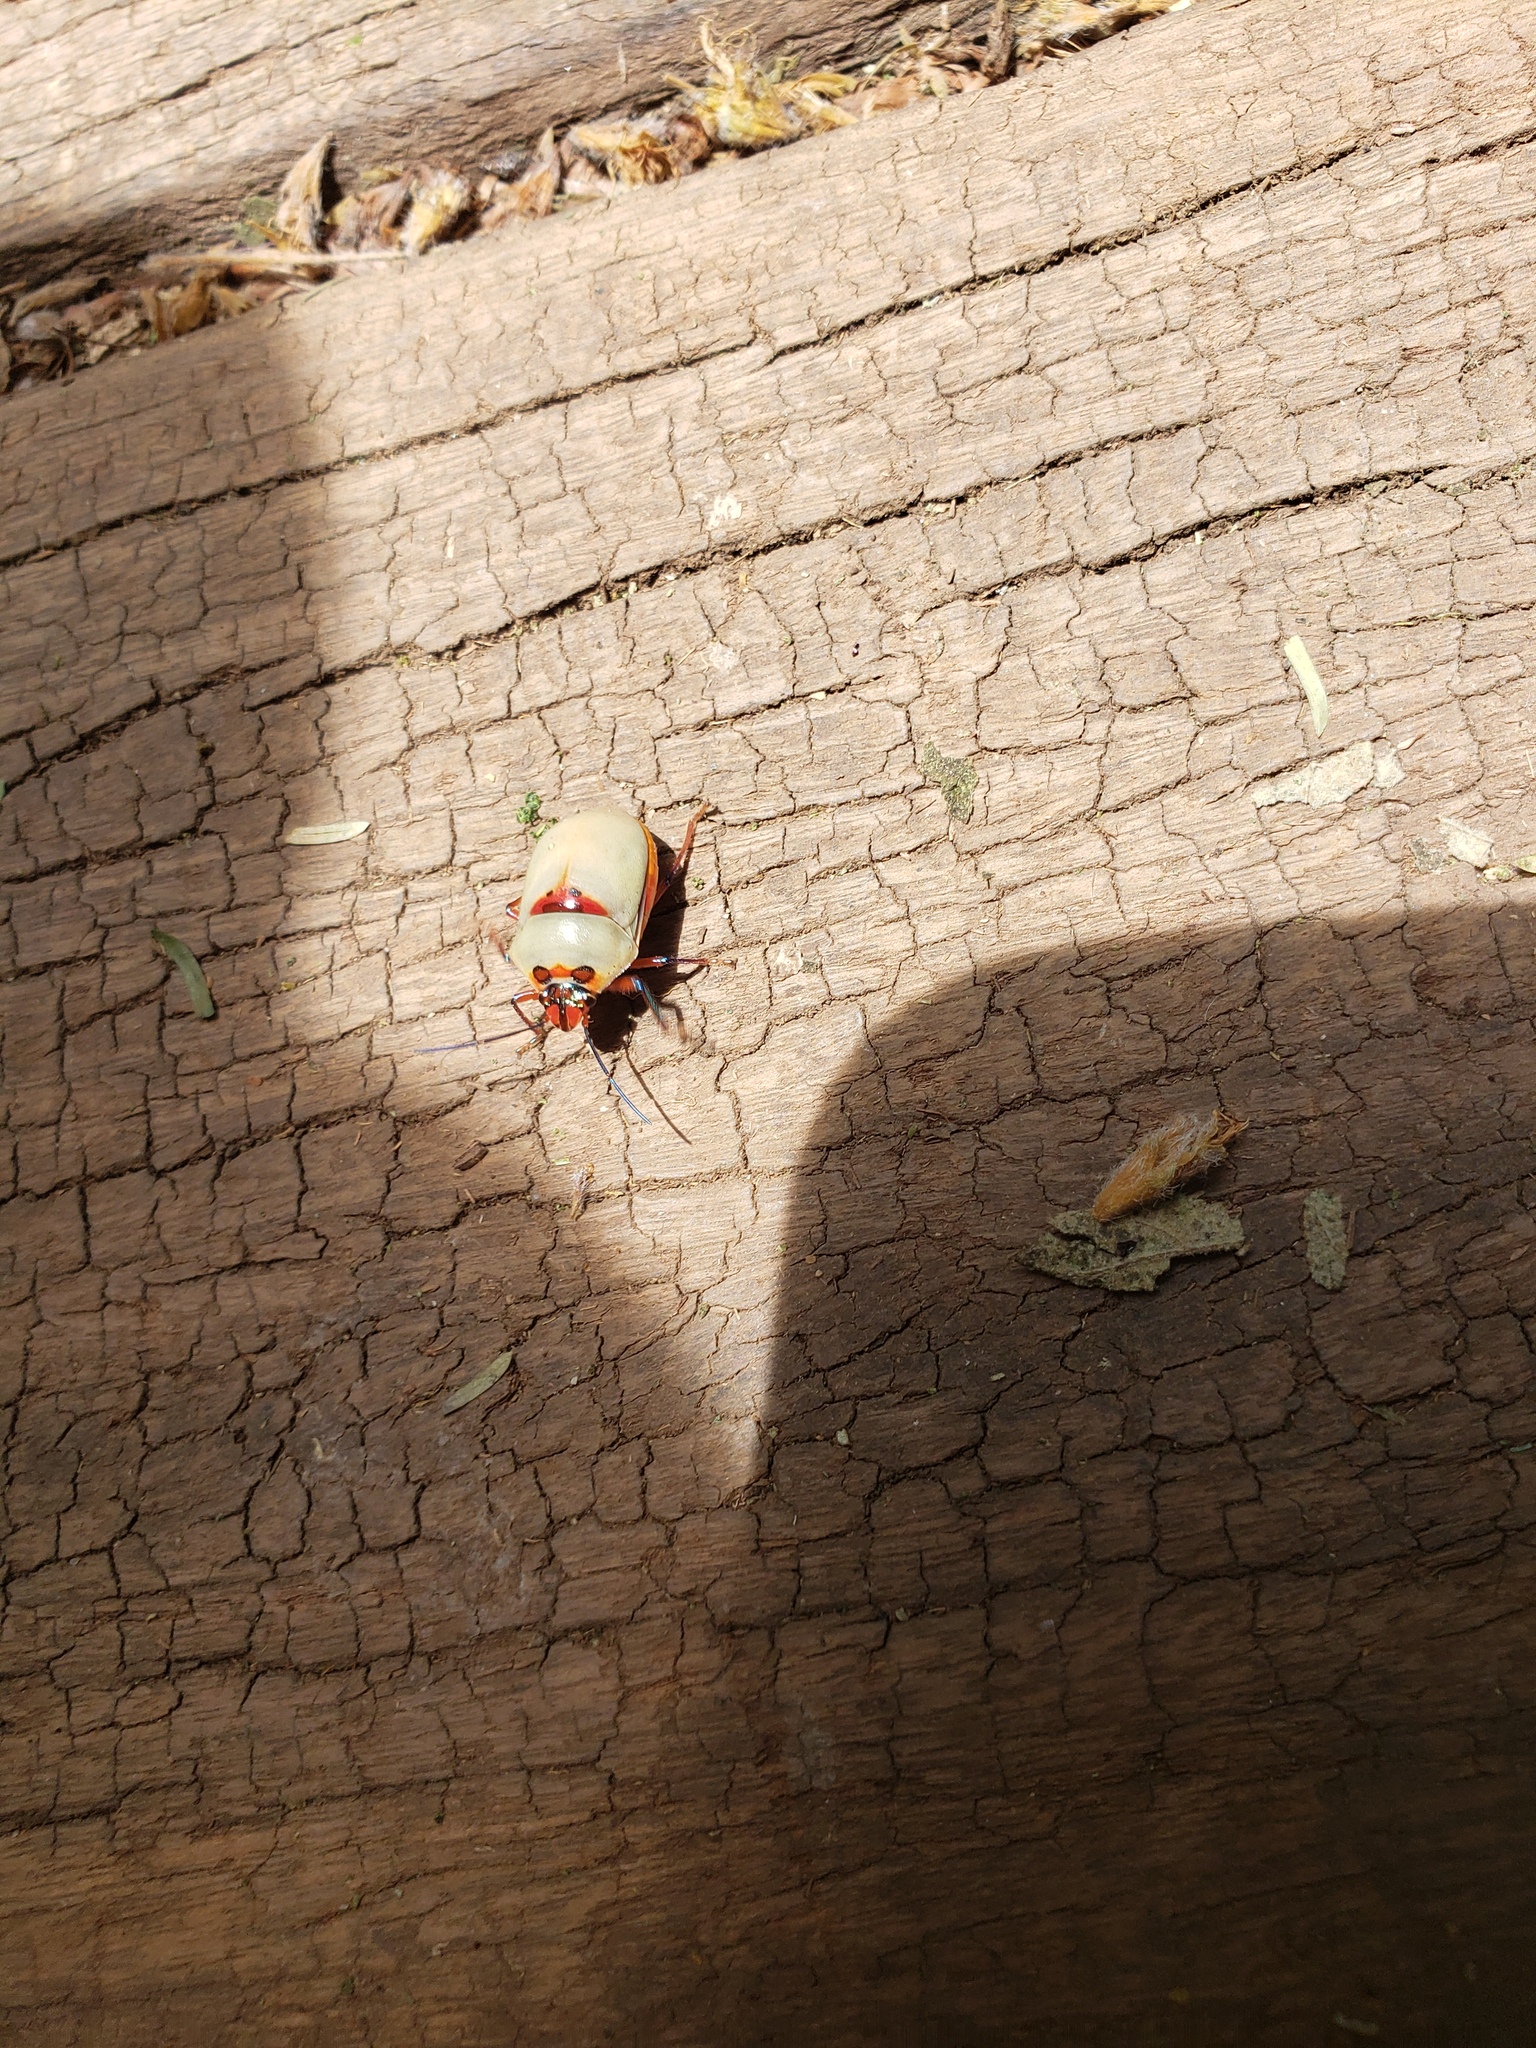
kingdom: Animalia
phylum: Arthropoda
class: Insecta
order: Hemiptera
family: Scutelleridae
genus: Augocoris
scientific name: Augocoris illustris
